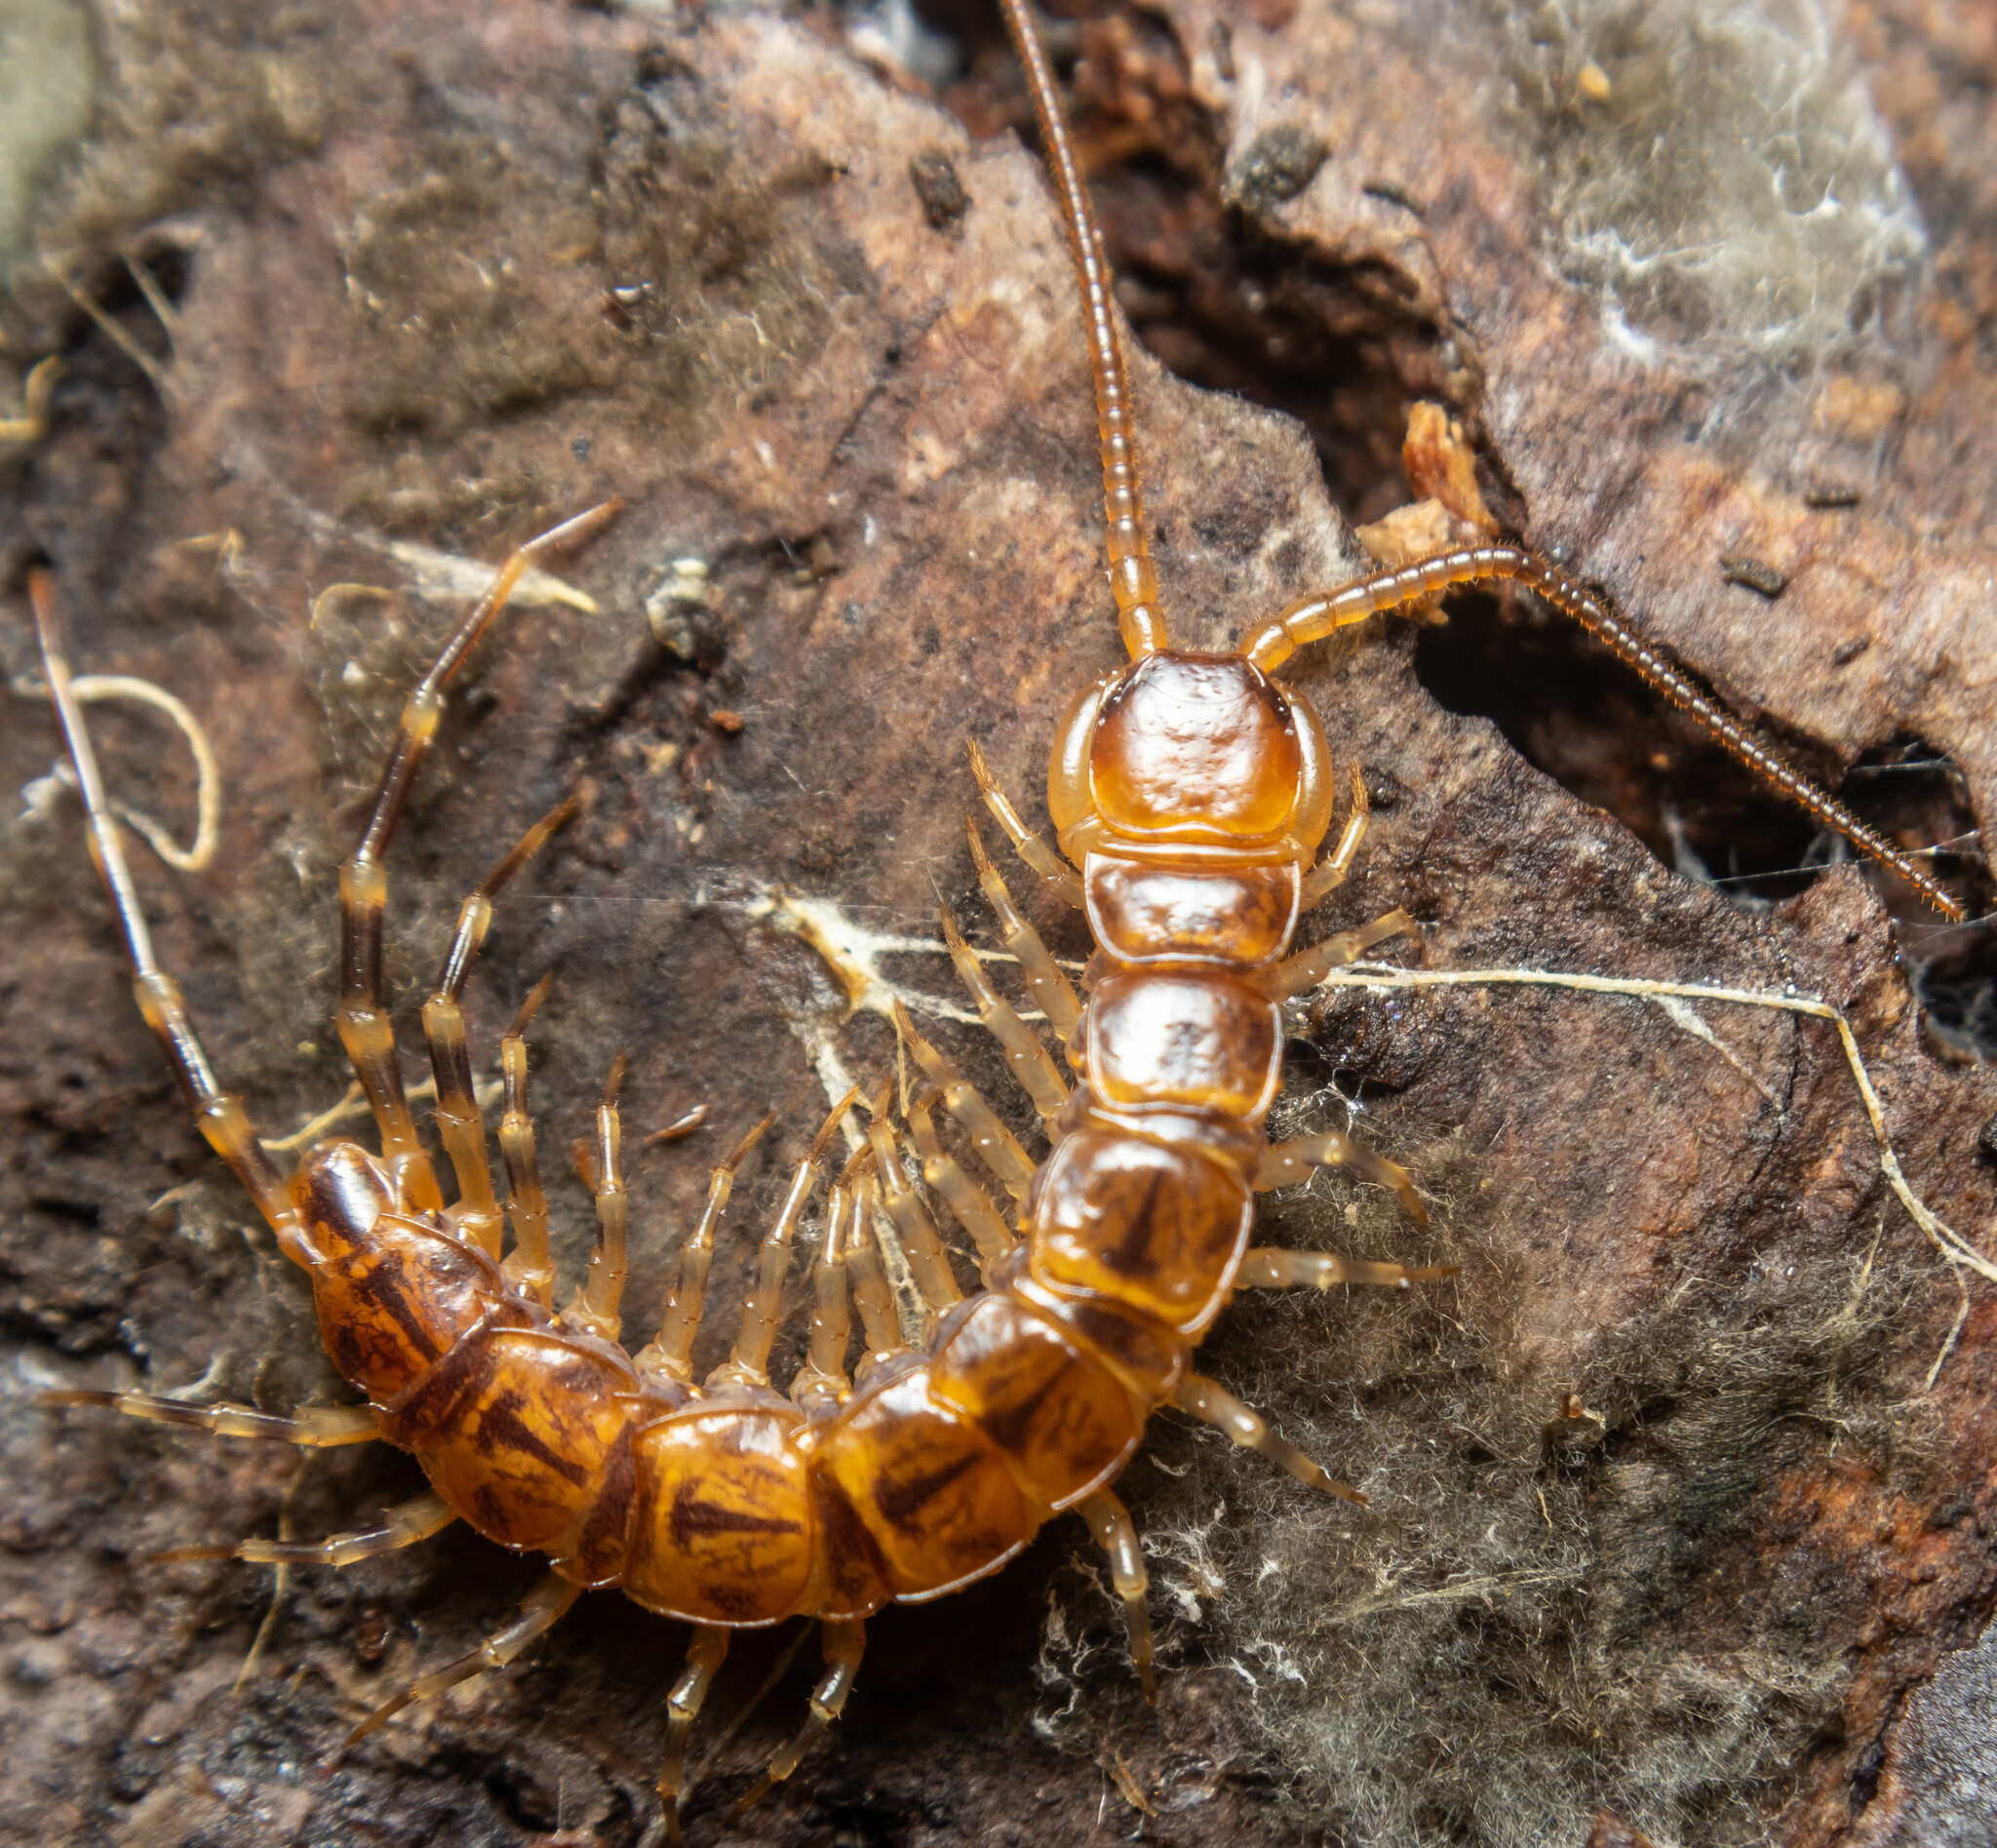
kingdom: Animalia
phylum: Arthropoda
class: Chilopoda
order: Lithobiomorpha
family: Lithobiidae
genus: Lithobius
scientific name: Lithobius variegatus
